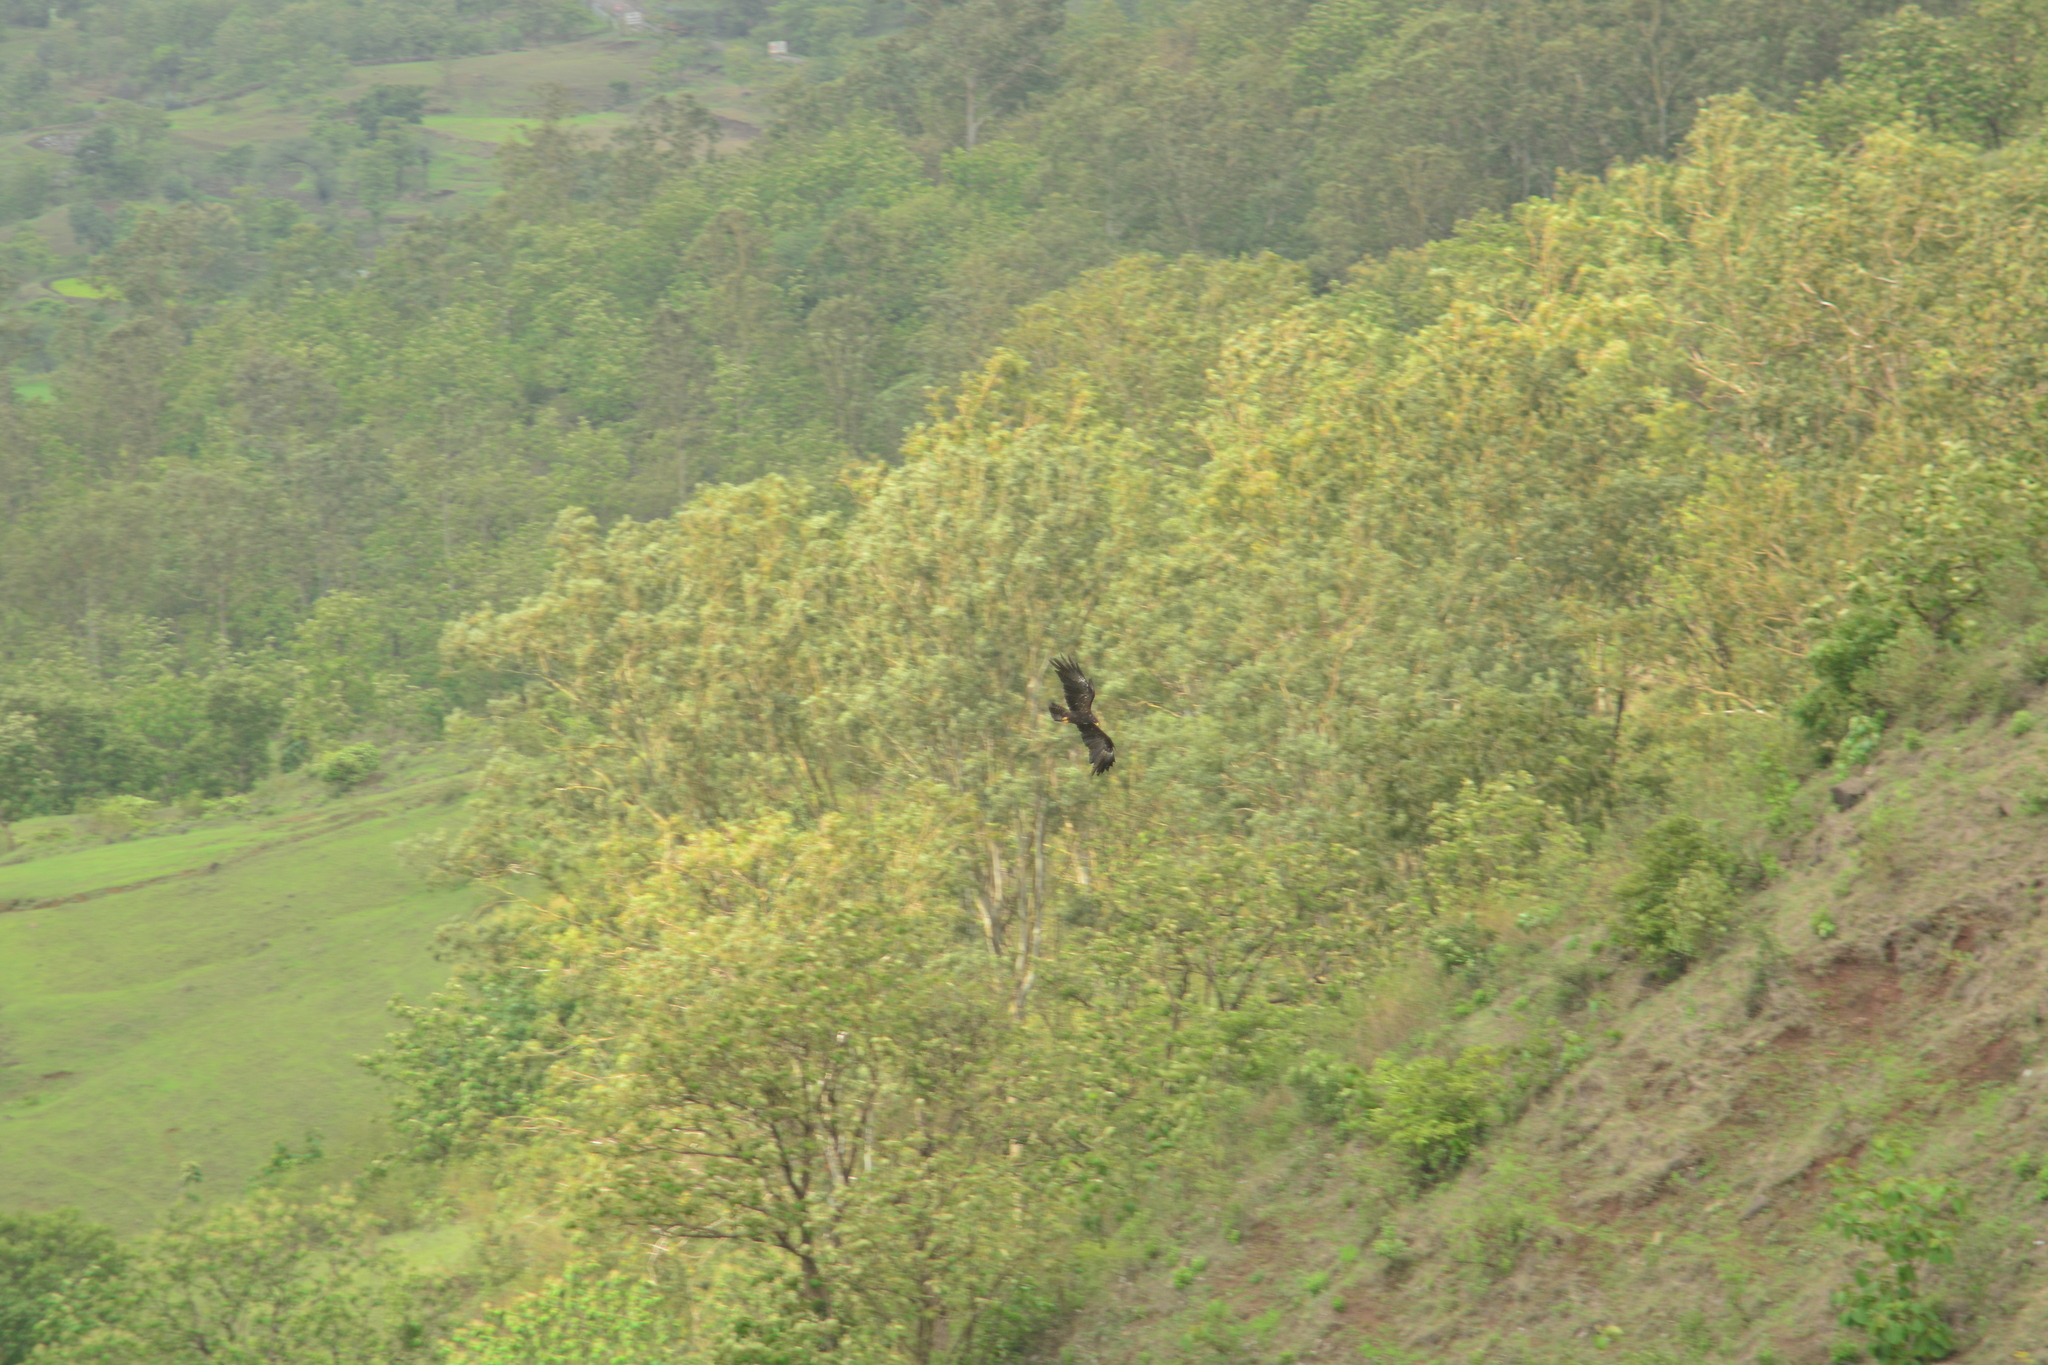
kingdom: Animalia
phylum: Chordata
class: Aves
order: Accipitriformes
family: Accipitridae
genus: Ictinaetus
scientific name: Ictinaetus malayensis
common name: Black eagle
